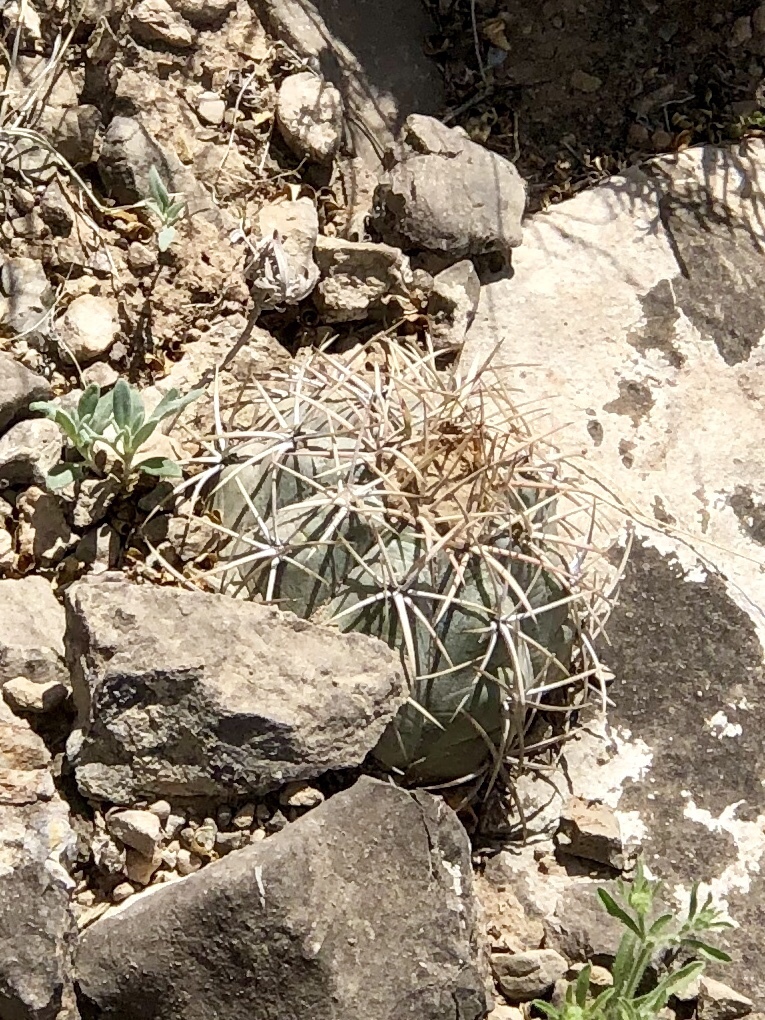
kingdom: Plantae
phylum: Tracheophyta
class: Magnoliopsida
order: Caryophyllales
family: Cactaceae
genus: Echinocactus
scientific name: Echinocactus horizonthalonius
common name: Devilshead
